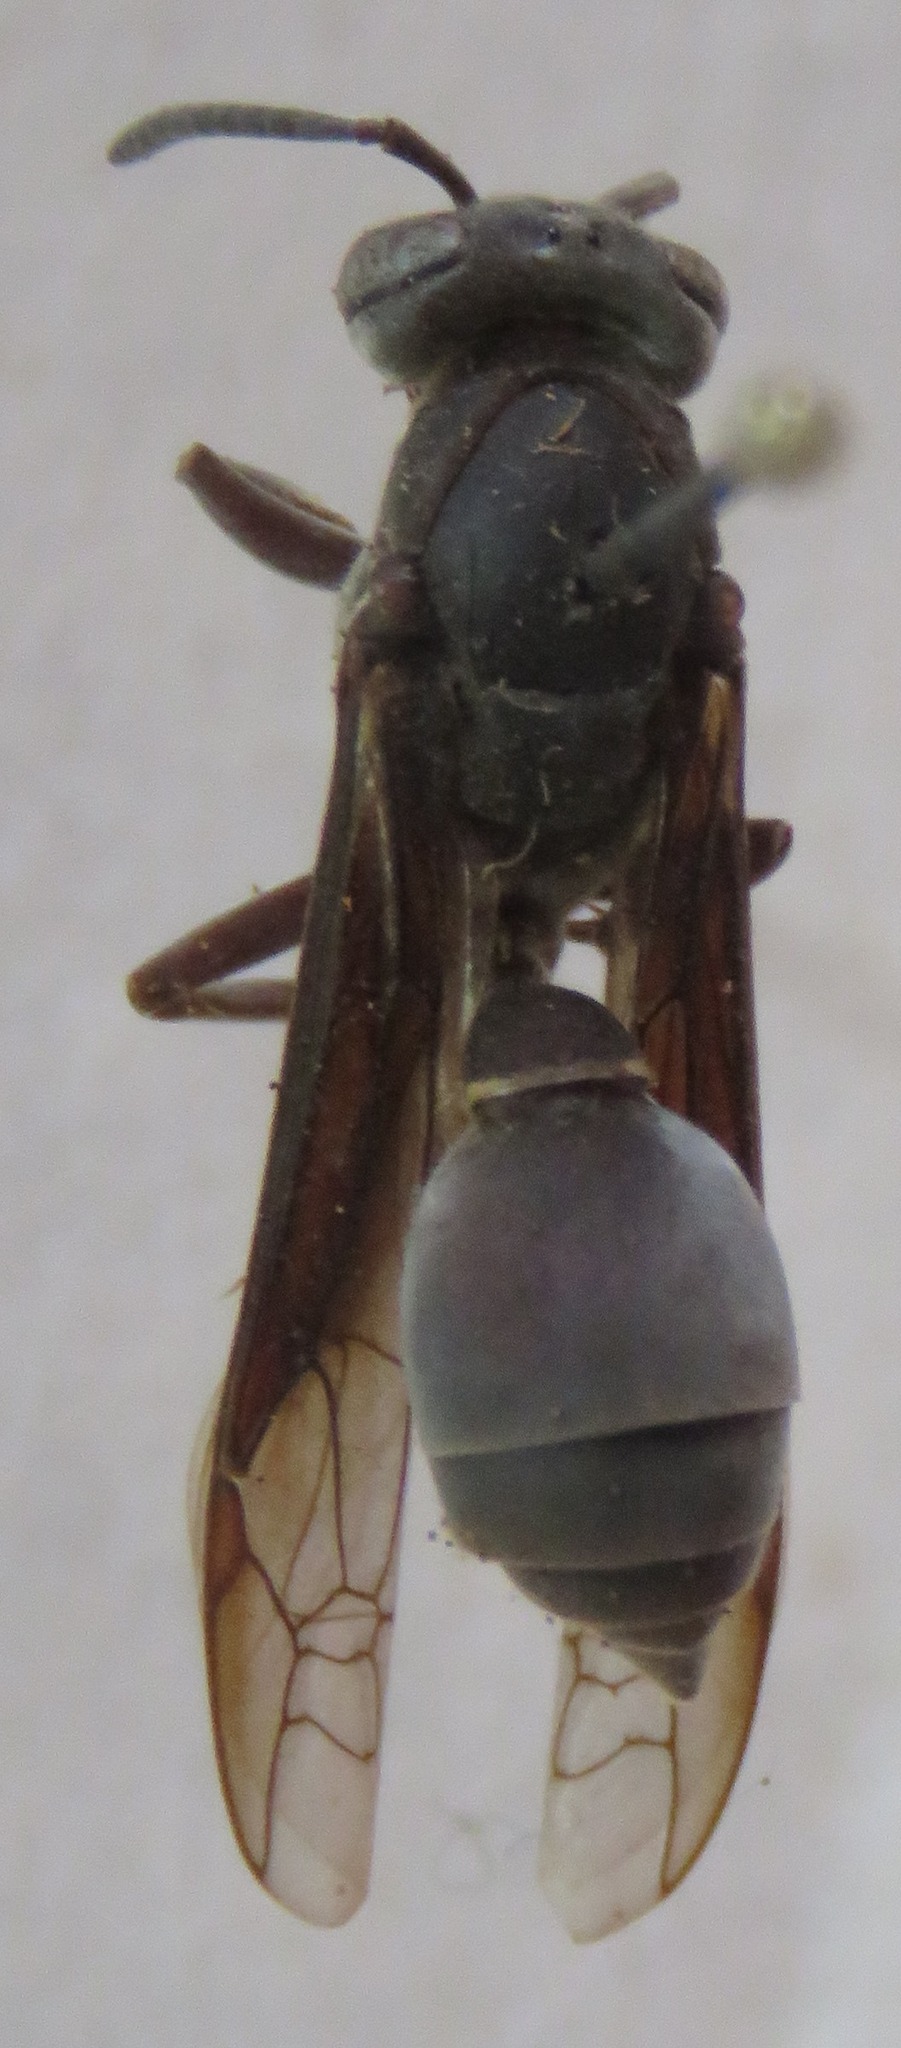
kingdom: Animalia
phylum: Arthropoda
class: Insecta
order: Hymenoptera
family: Eumenidae
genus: Polybia
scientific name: Polybia ignobilis
